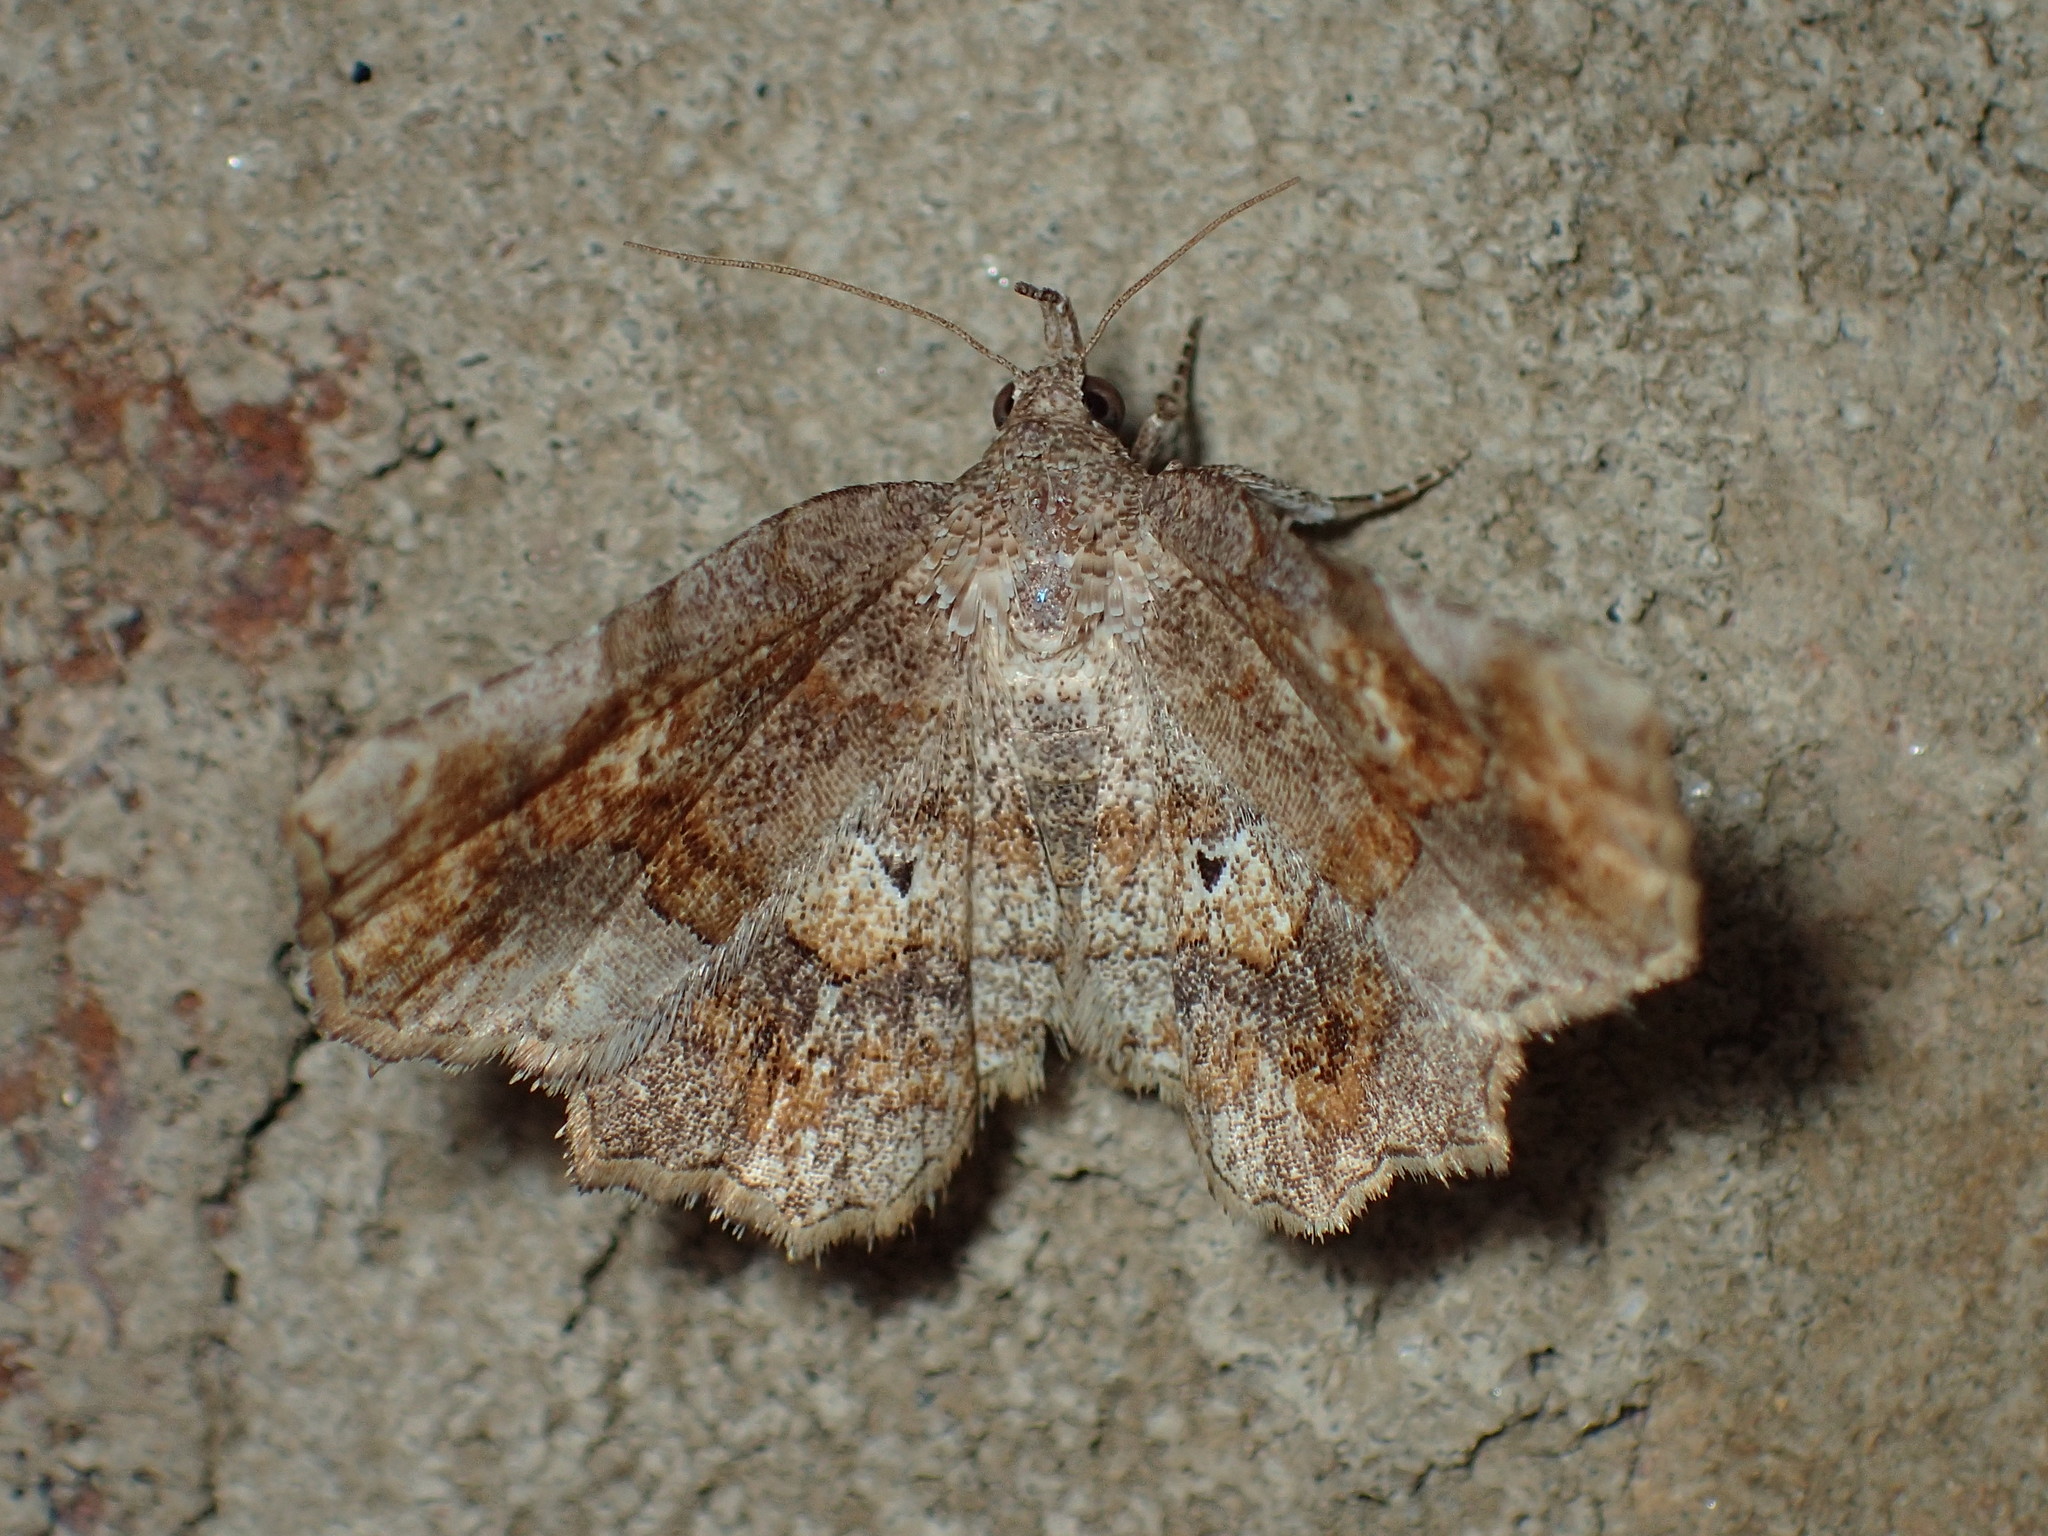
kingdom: Animalia
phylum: Arthropoda
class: Insecta
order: Lepidoptera
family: Erebidae
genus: Pangrapta
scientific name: Pangrapta decoralis
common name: Decorated owlet
